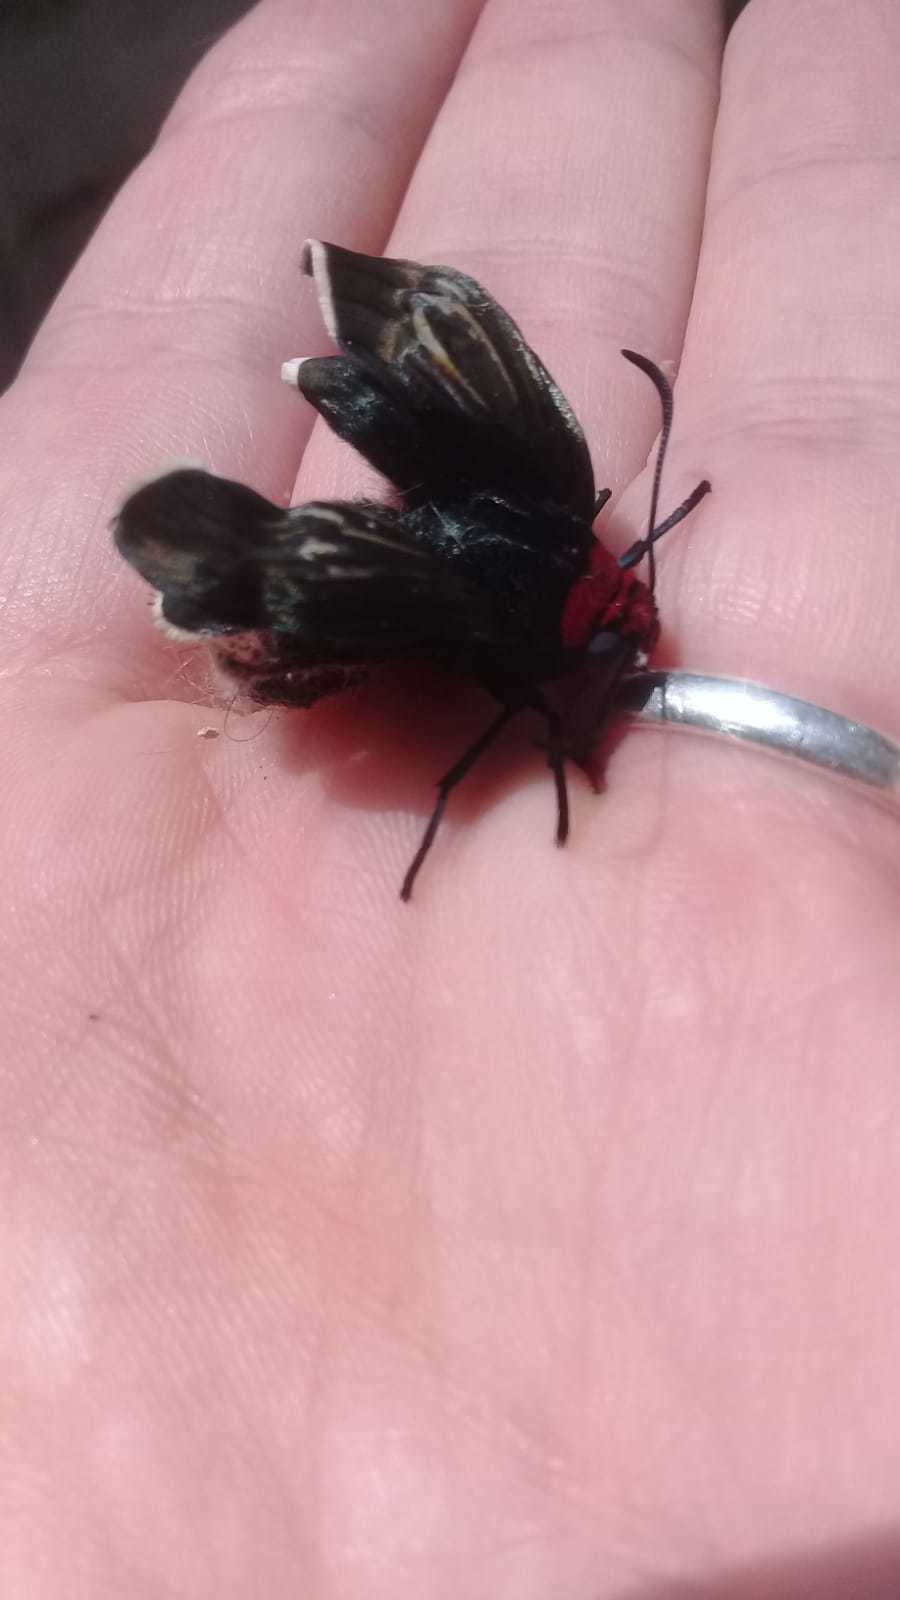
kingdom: Animalia
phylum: Arthropoda
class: Insecta
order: Lepidoptera
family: Hesperiidae
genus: Pyrrhopyge
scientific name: Pyrrhopyge charybdis
